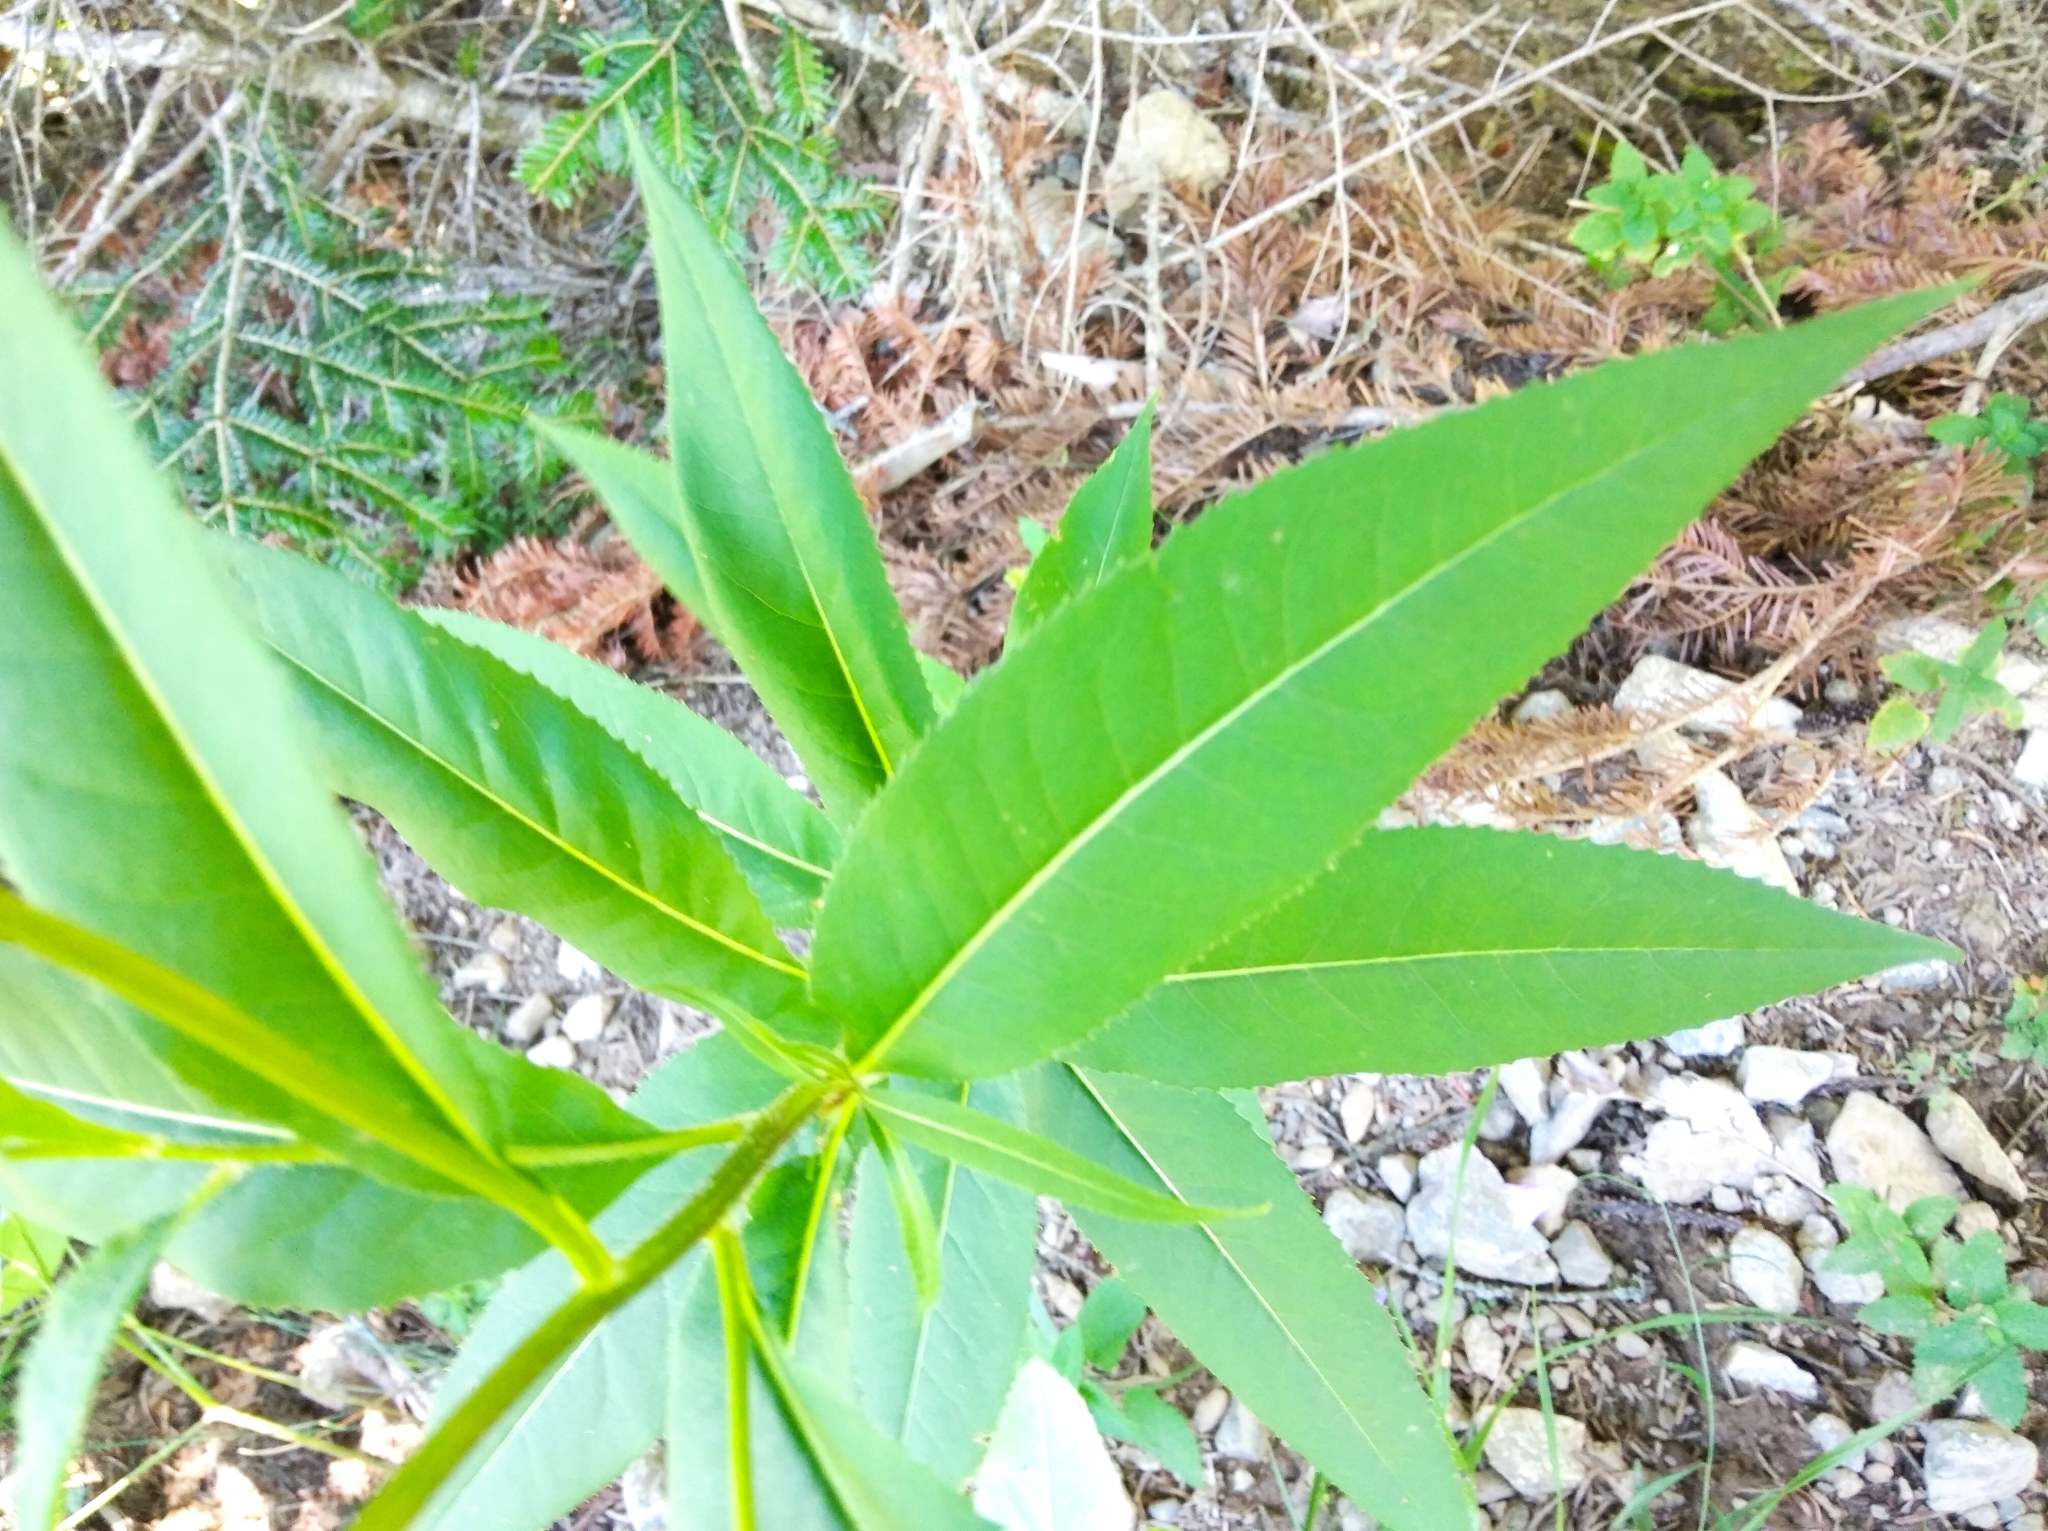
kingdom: Plantae
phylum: Tracheophyta
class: Magnoliopsida
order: Asterales
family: Asteraceae
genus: Senecio
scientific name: Senecio ovatus
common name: Wood ragwort
